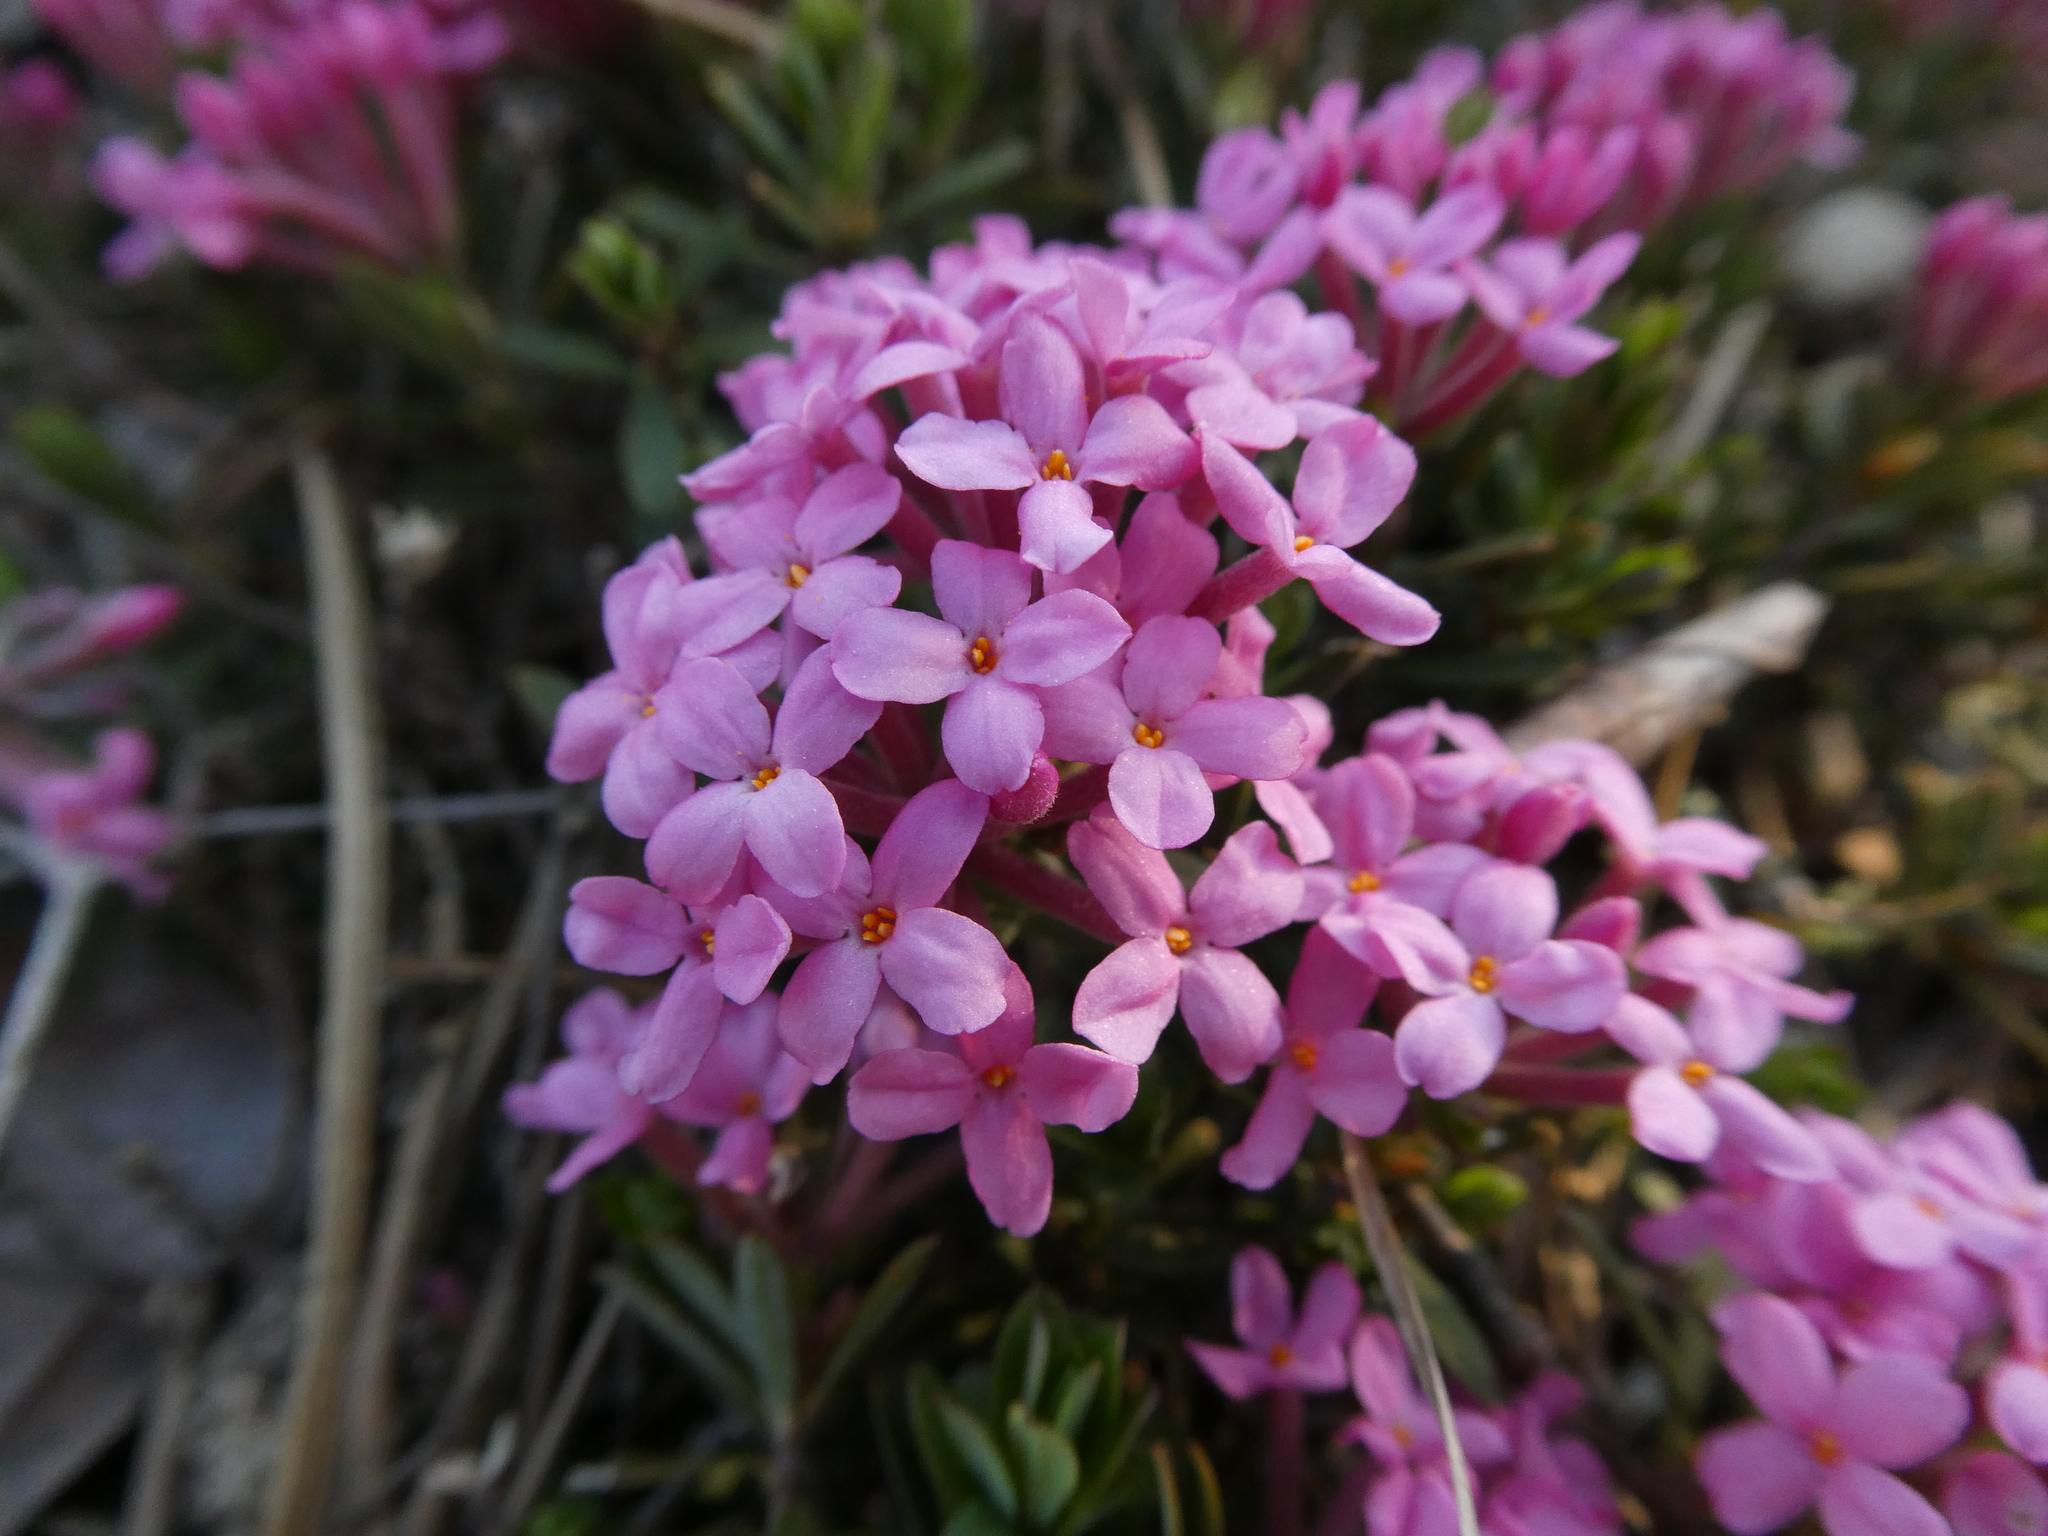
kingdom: Plantae
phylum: Tracheophyta
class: Magnoliopsida
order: Malvales
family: Thymelaeaceae
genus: Daphne
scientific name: Daphne cneorum
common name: Garland-flower
